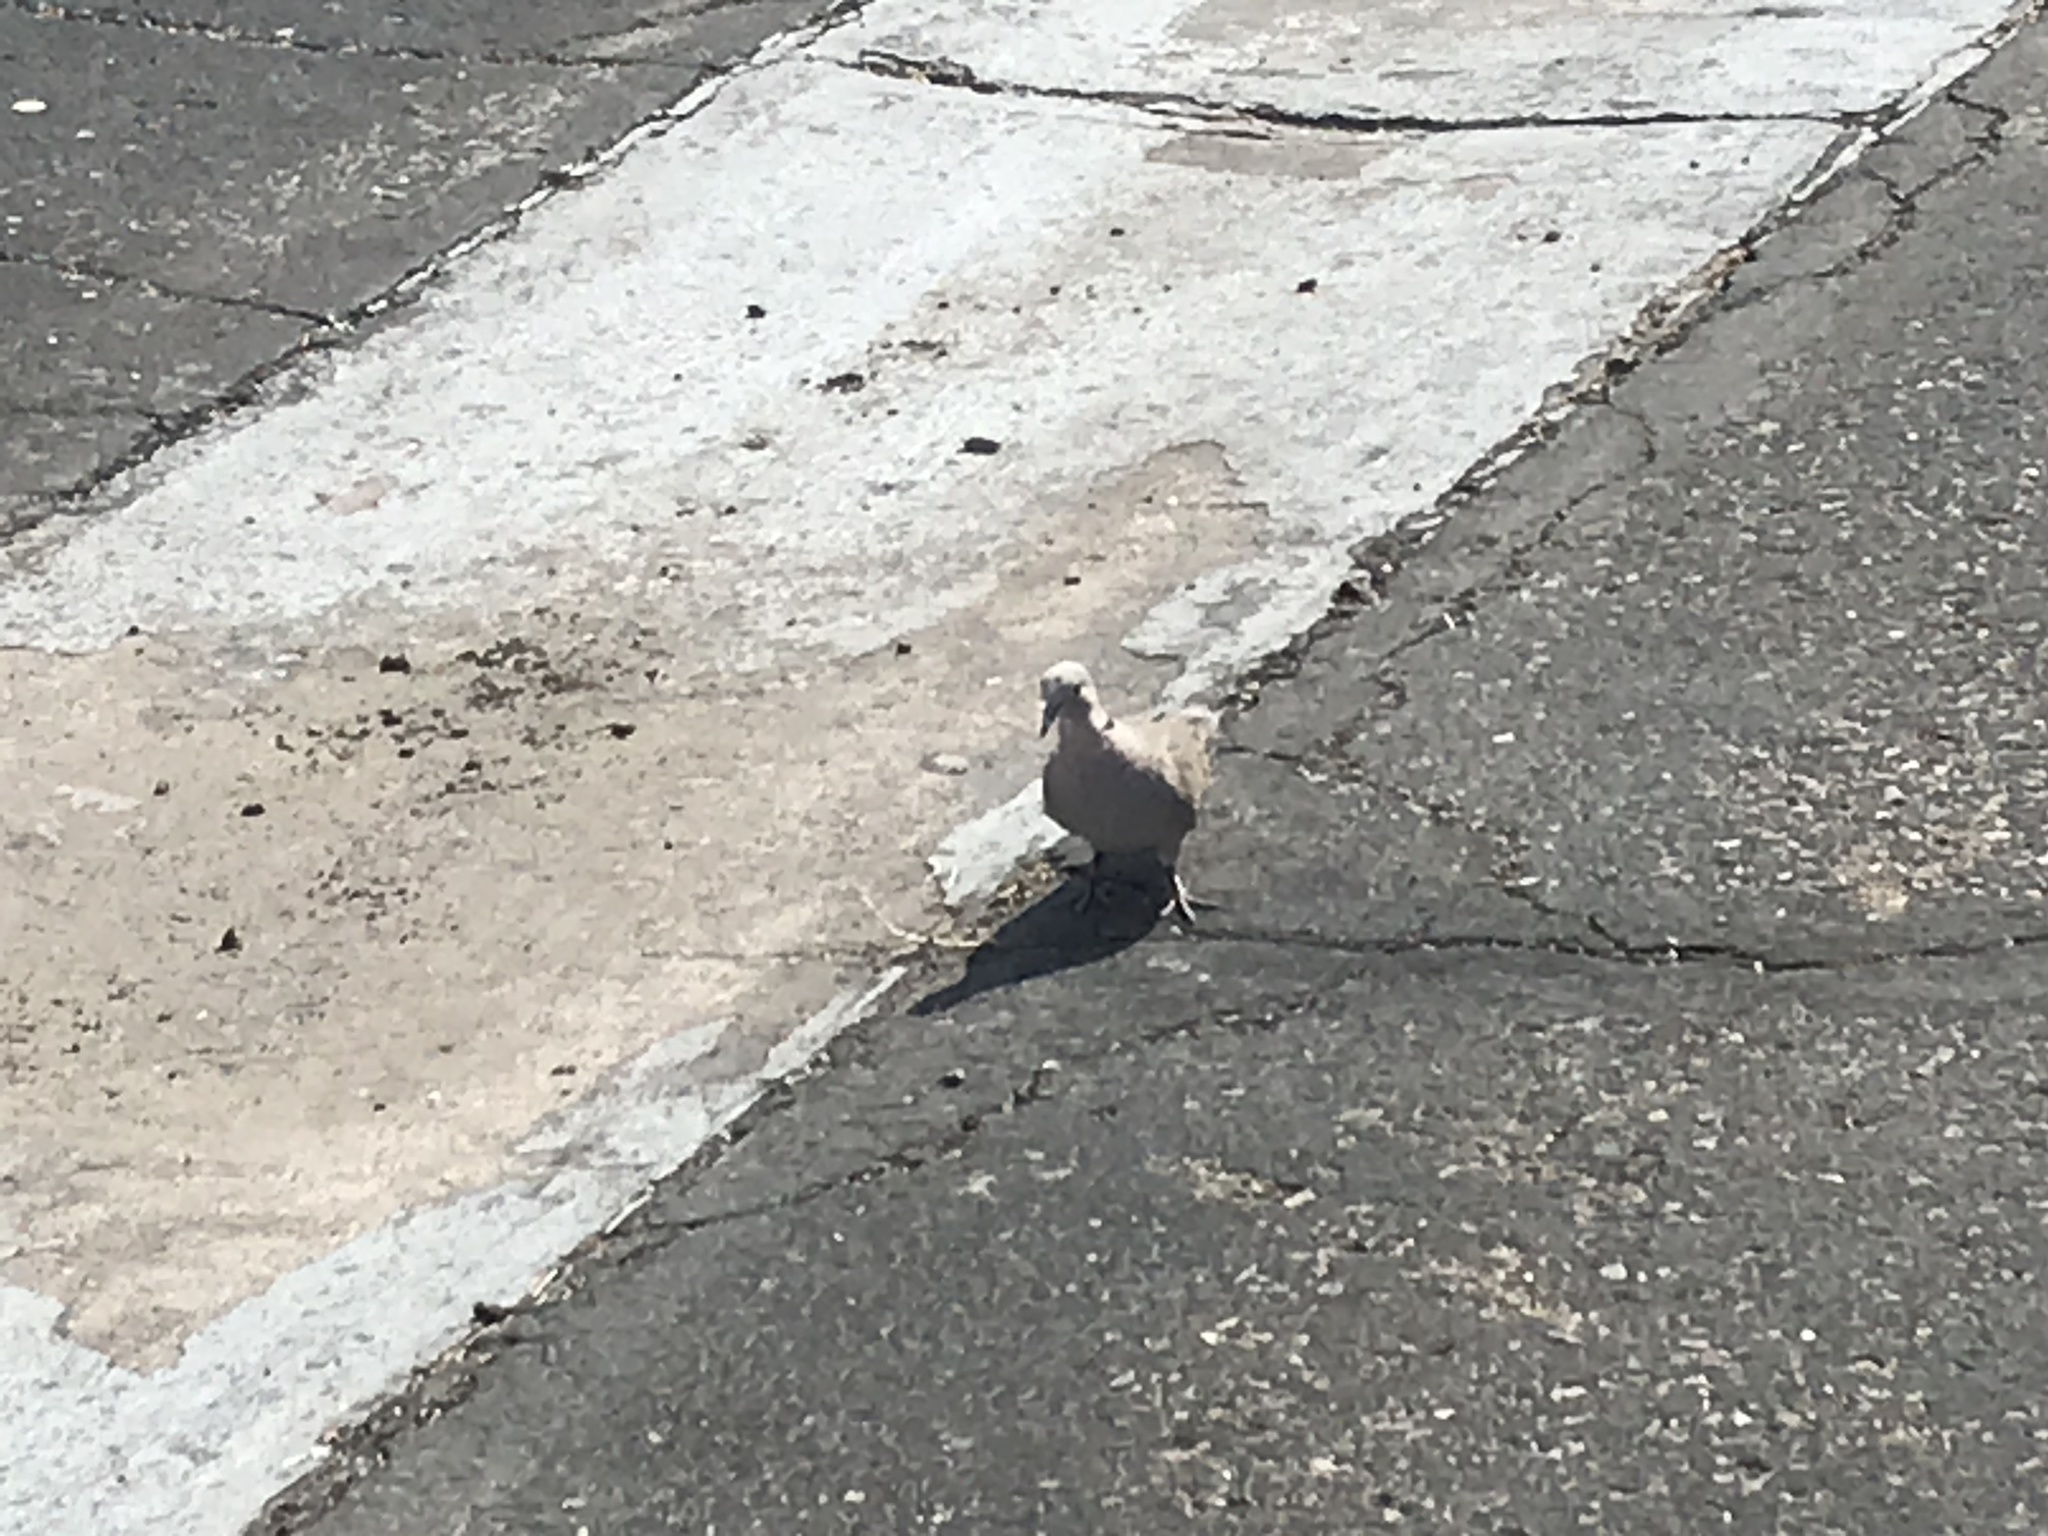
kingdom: Animalia
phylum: Chordata
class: Aves
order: Columbiformes
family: Columbidae
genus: Streptopelia
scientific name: Streptopelia decaocto
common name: Eurasian collared dove
